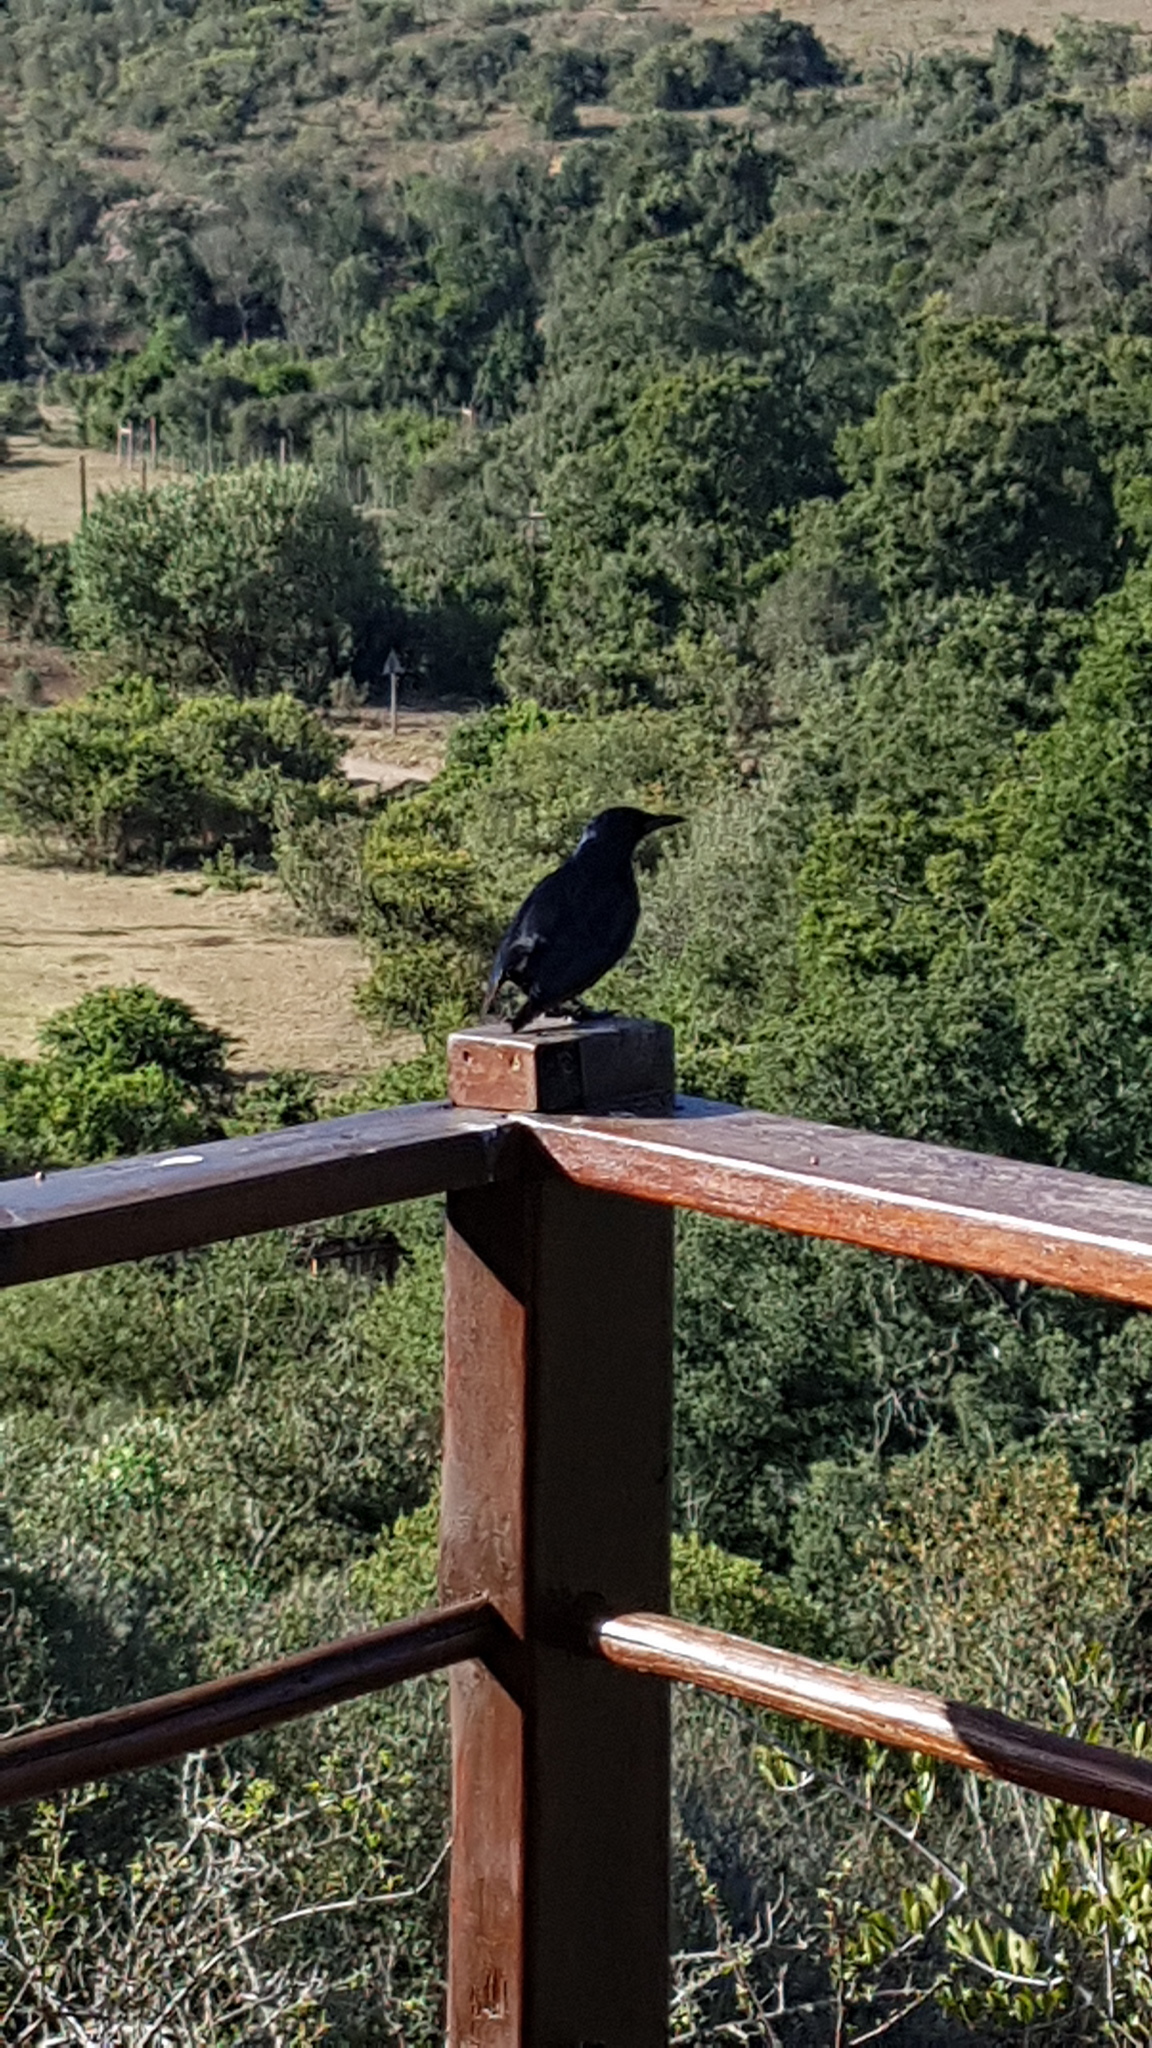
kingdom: Animalia
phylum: Chordata
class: Aves
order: Passeriformes
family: Sturnidae
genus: Onychognathus
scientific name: Onychognathus morio
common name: Red-winged starling
